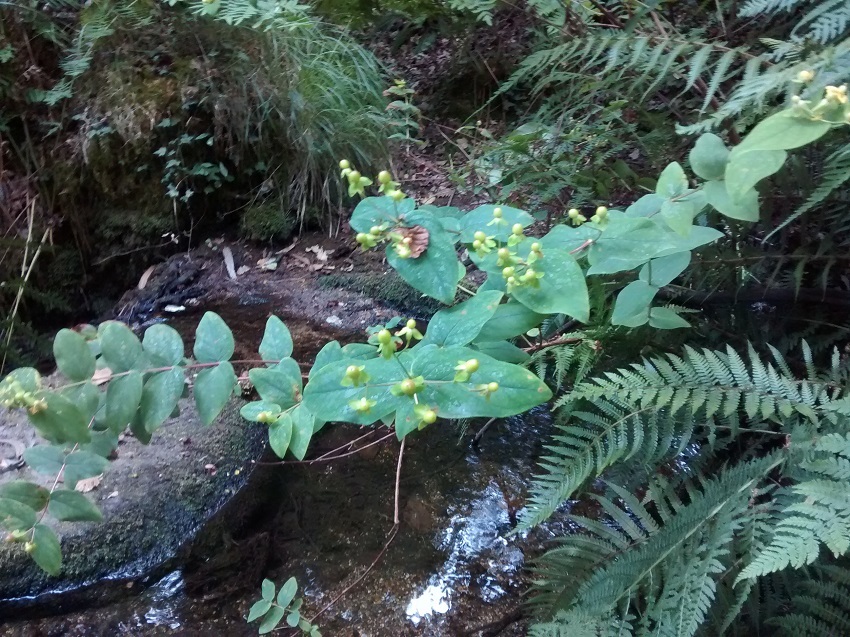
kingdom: Plantae
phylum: Tracheophyta
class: Magnoliopsida
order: Malpighiales
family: Hypericaceae
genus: Hypericum
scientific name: Hypericum androsaemum
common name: Sweet-amber
